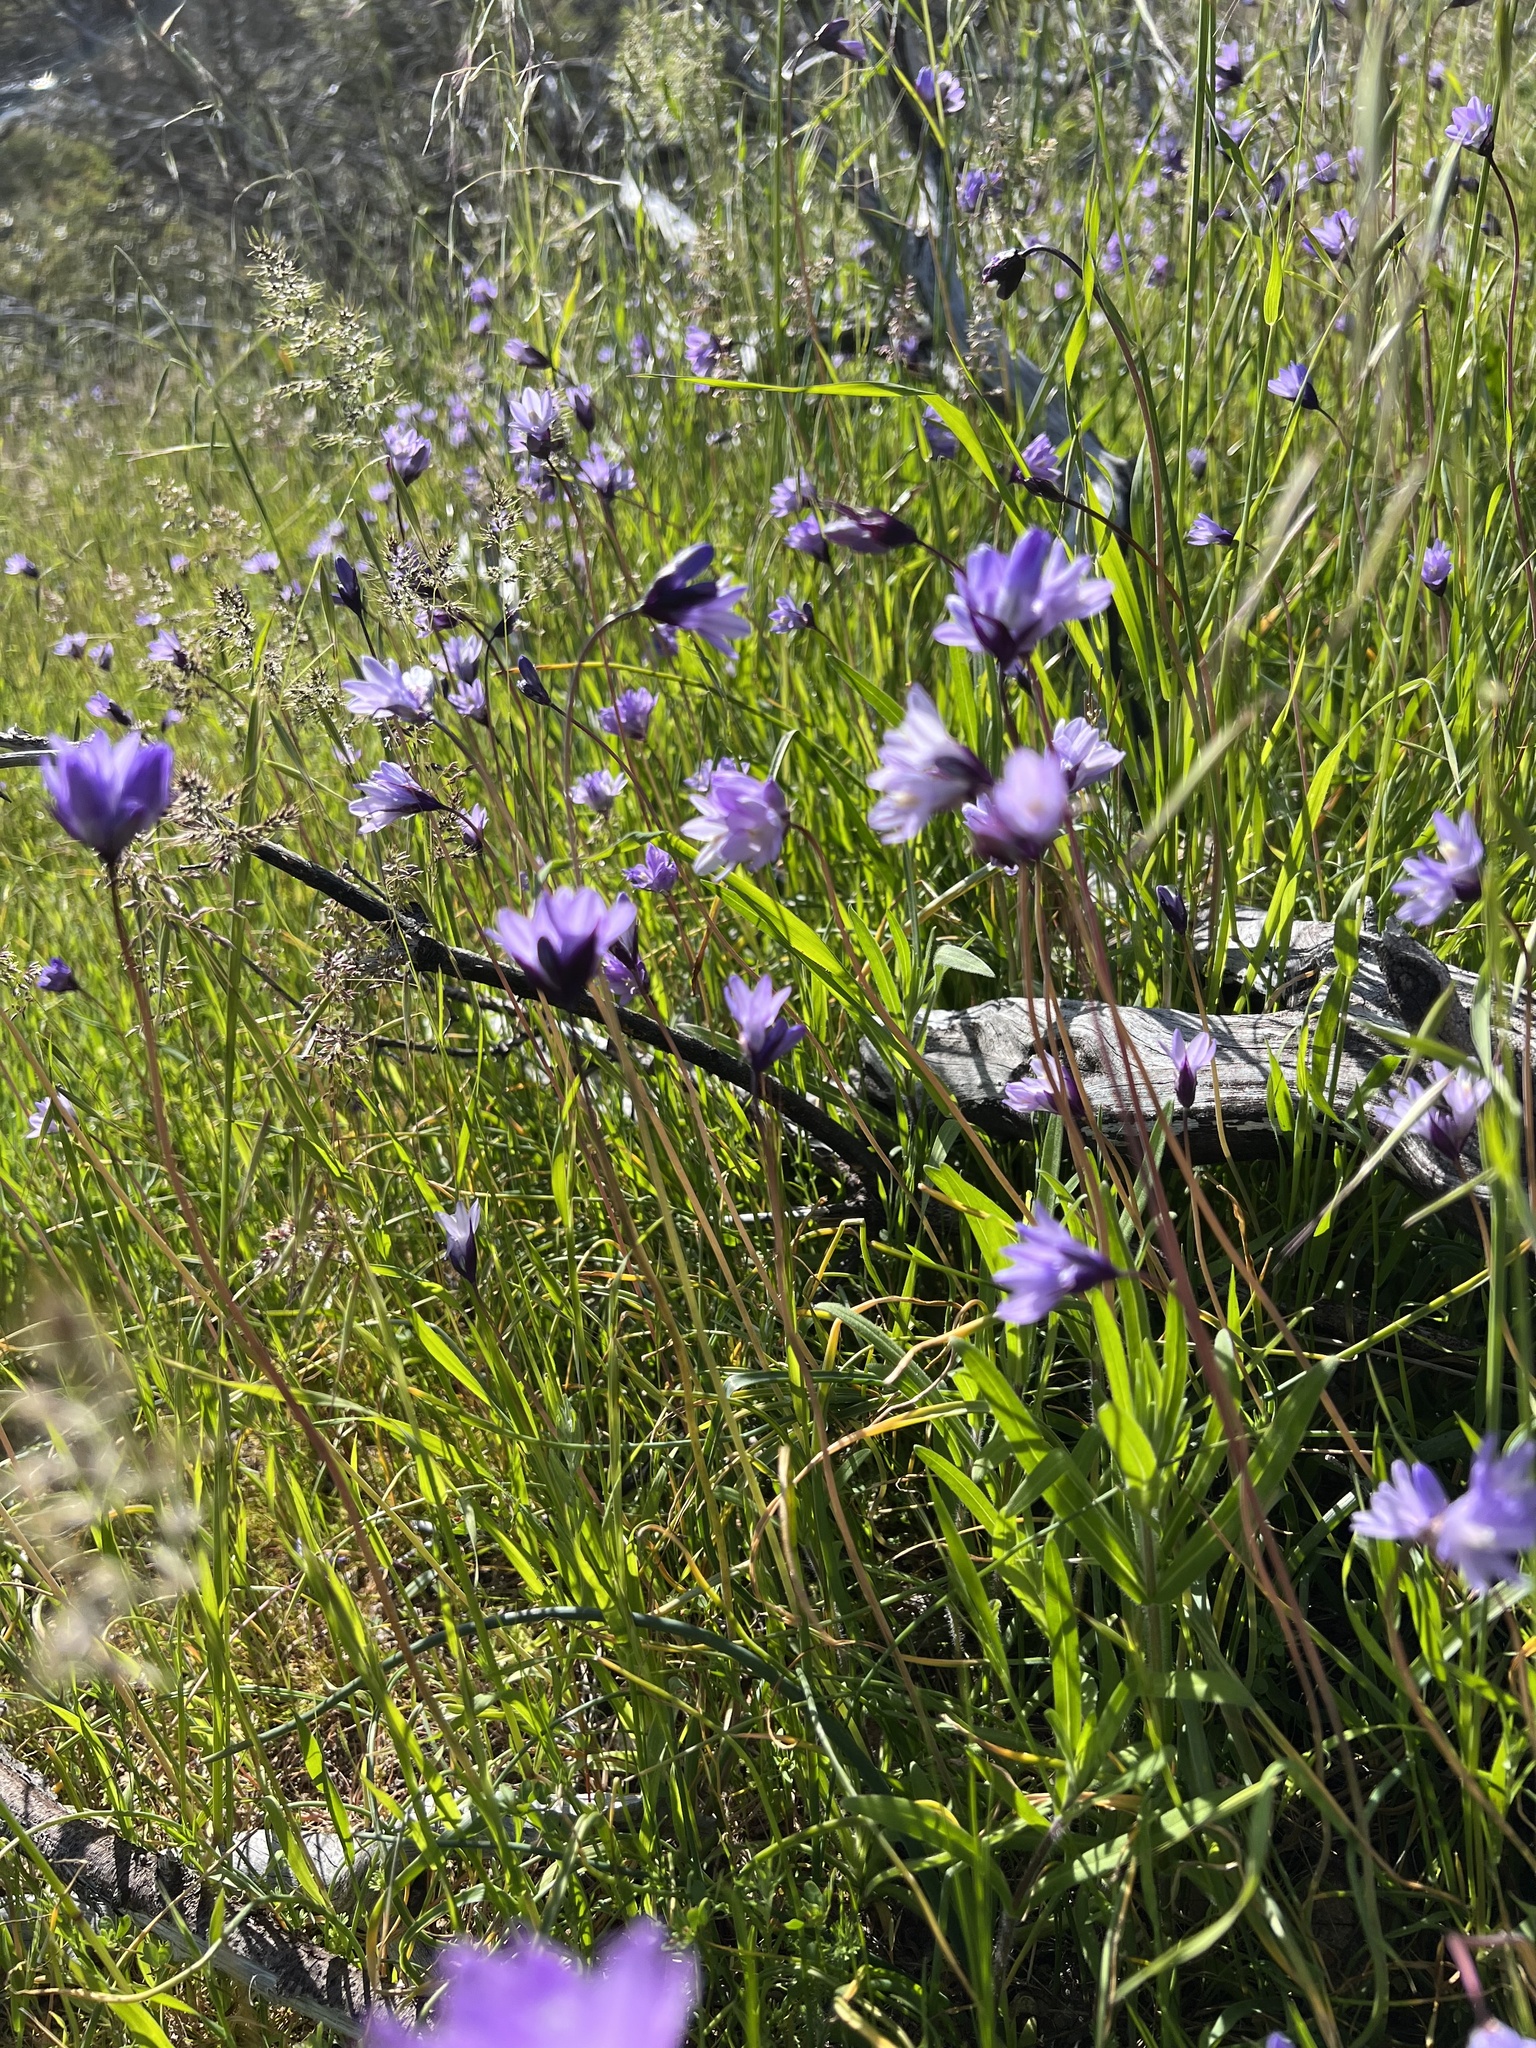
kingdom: Plantae
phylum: Tracheophyta
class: Liliopsida
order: Asparagales
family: Asparagaceae
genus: Dipterostemon
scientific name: Dipterostemon capitatus
